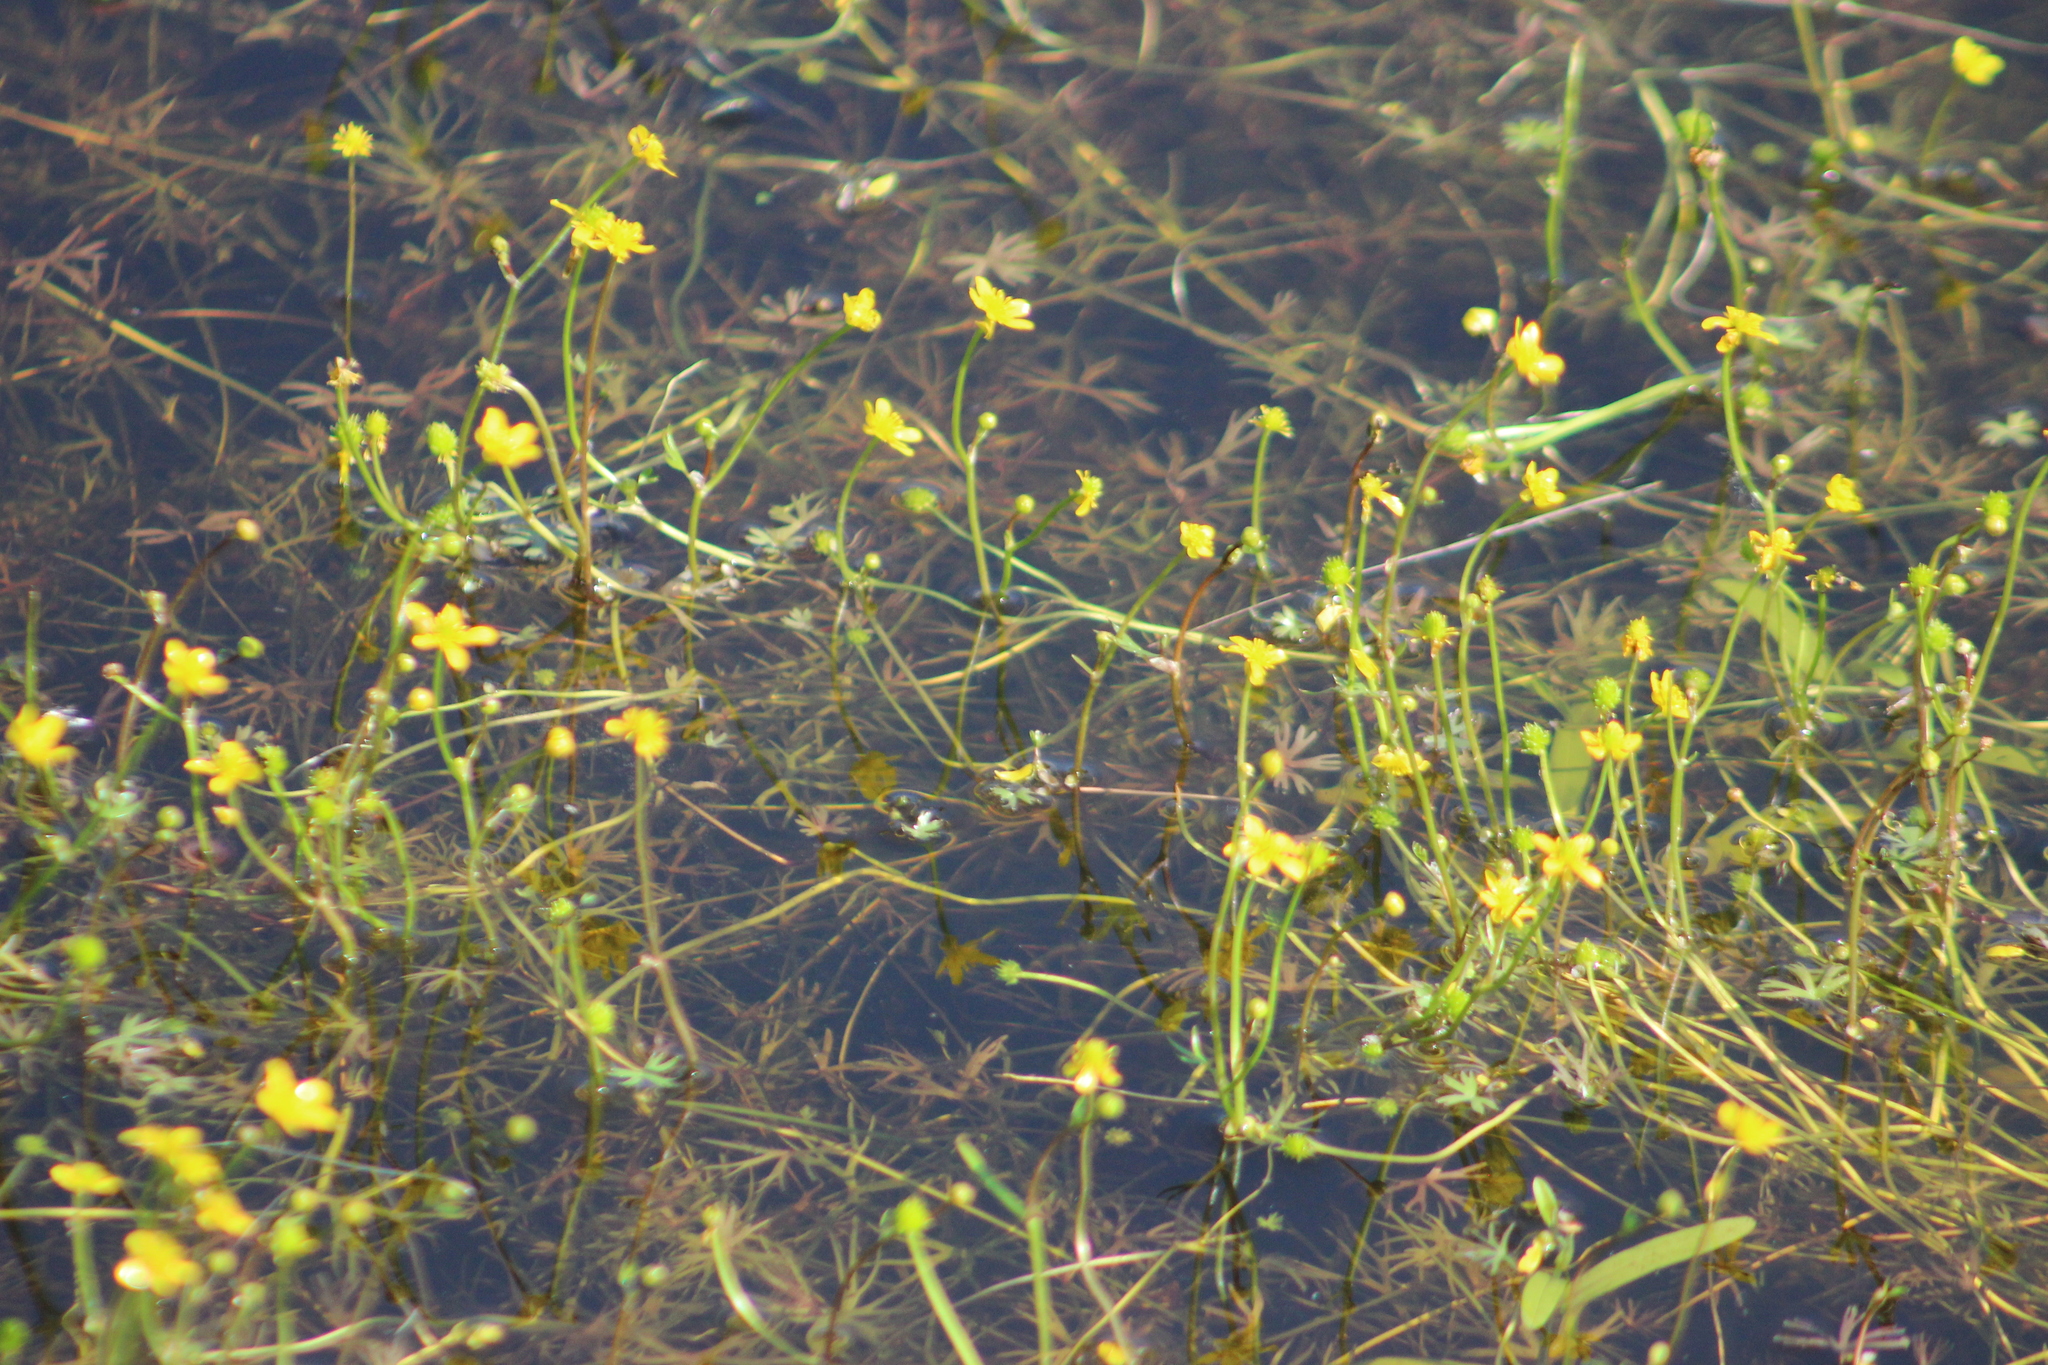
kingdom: Plantae
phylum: Tracheophyta
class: Magnoliopsida
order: Ranunculales
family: Ranunculaceae
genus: Ranunculus
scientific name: Ranunculus gmelinii
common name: Gmelin's buttercup
